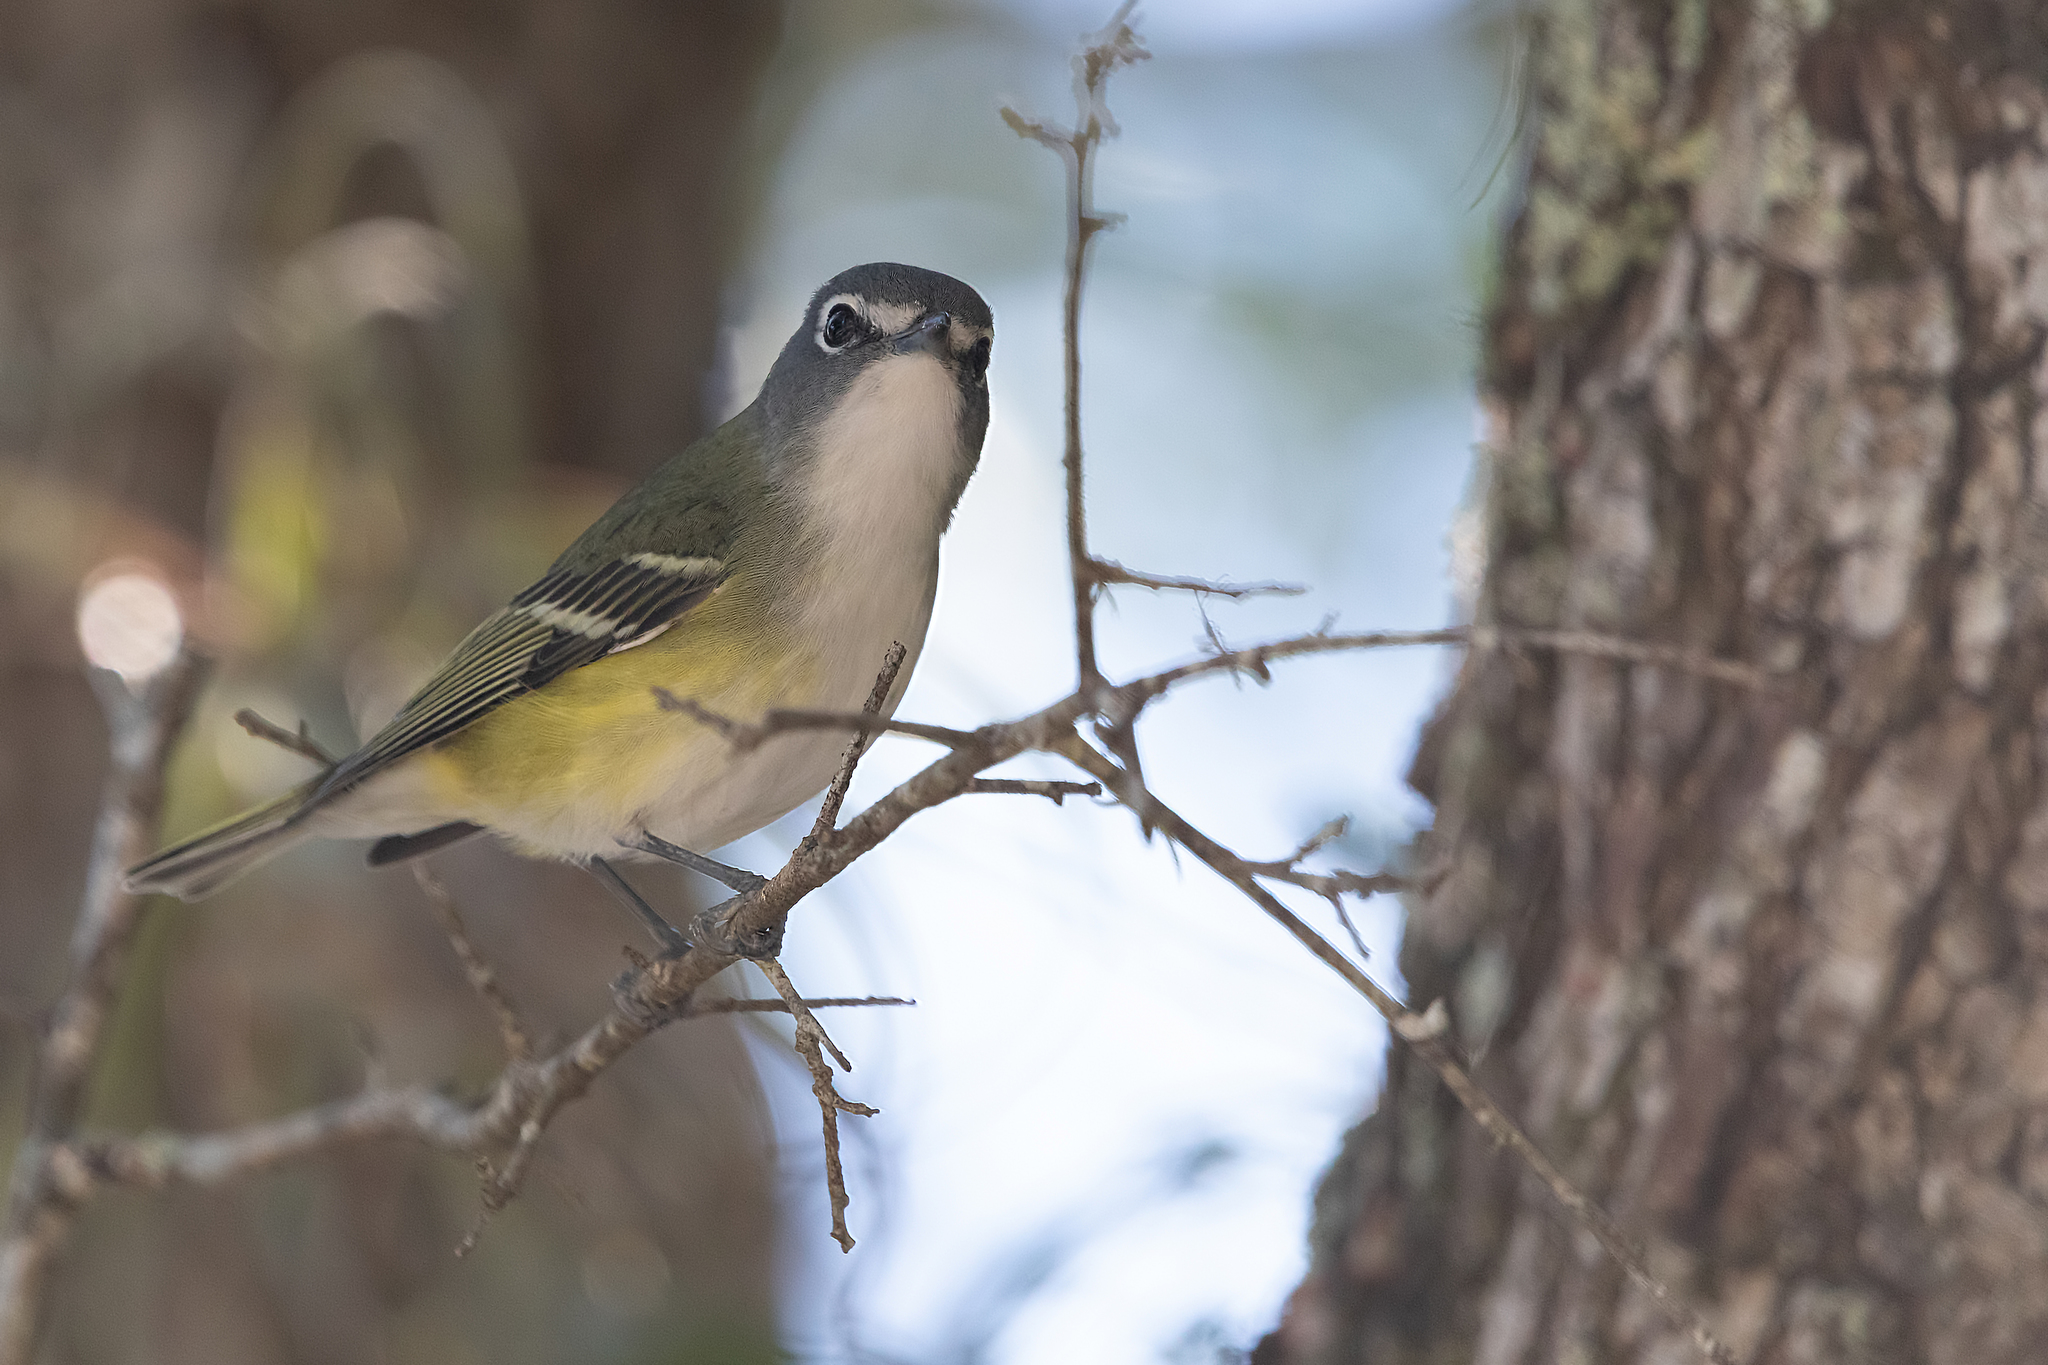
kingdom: Animalia
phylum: Chordata
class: Aves
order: Passeriformes
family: Vireonidae
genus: Vireo
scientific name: Vireo solitarius
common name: Blue-headed vireo
